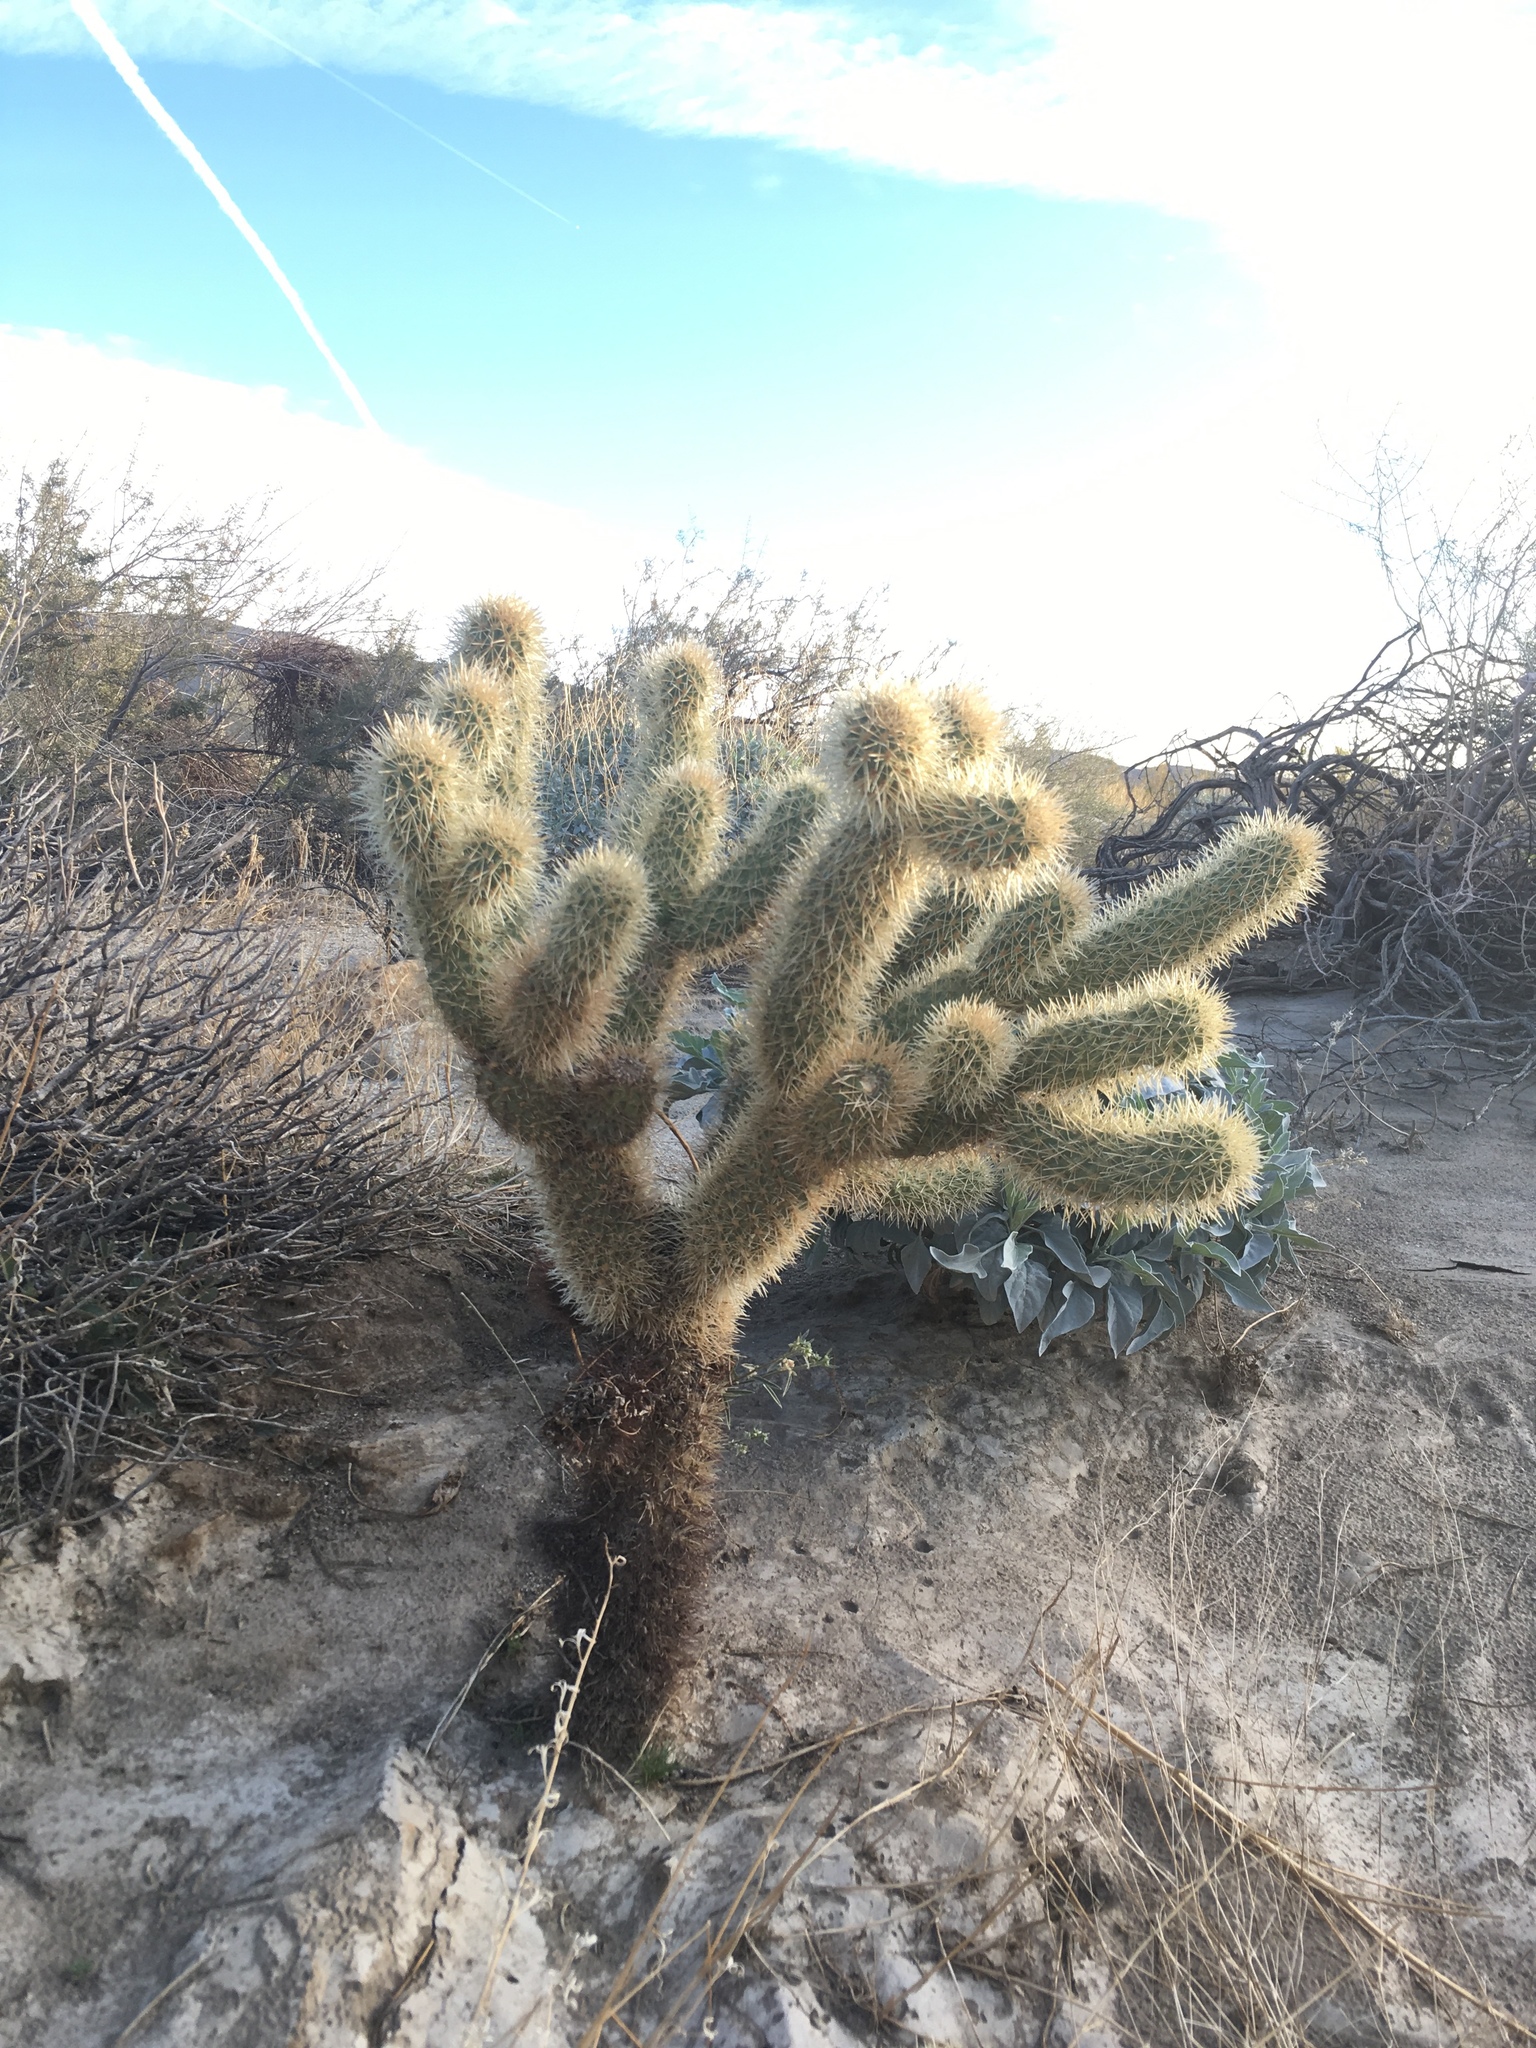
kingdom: Plantae
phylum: Tracheophyta
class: Magnoliopsida
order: Caryophyllales
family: Cactaceae
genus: Cylindropuntia
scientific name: Cylindropuntia fosbergii
